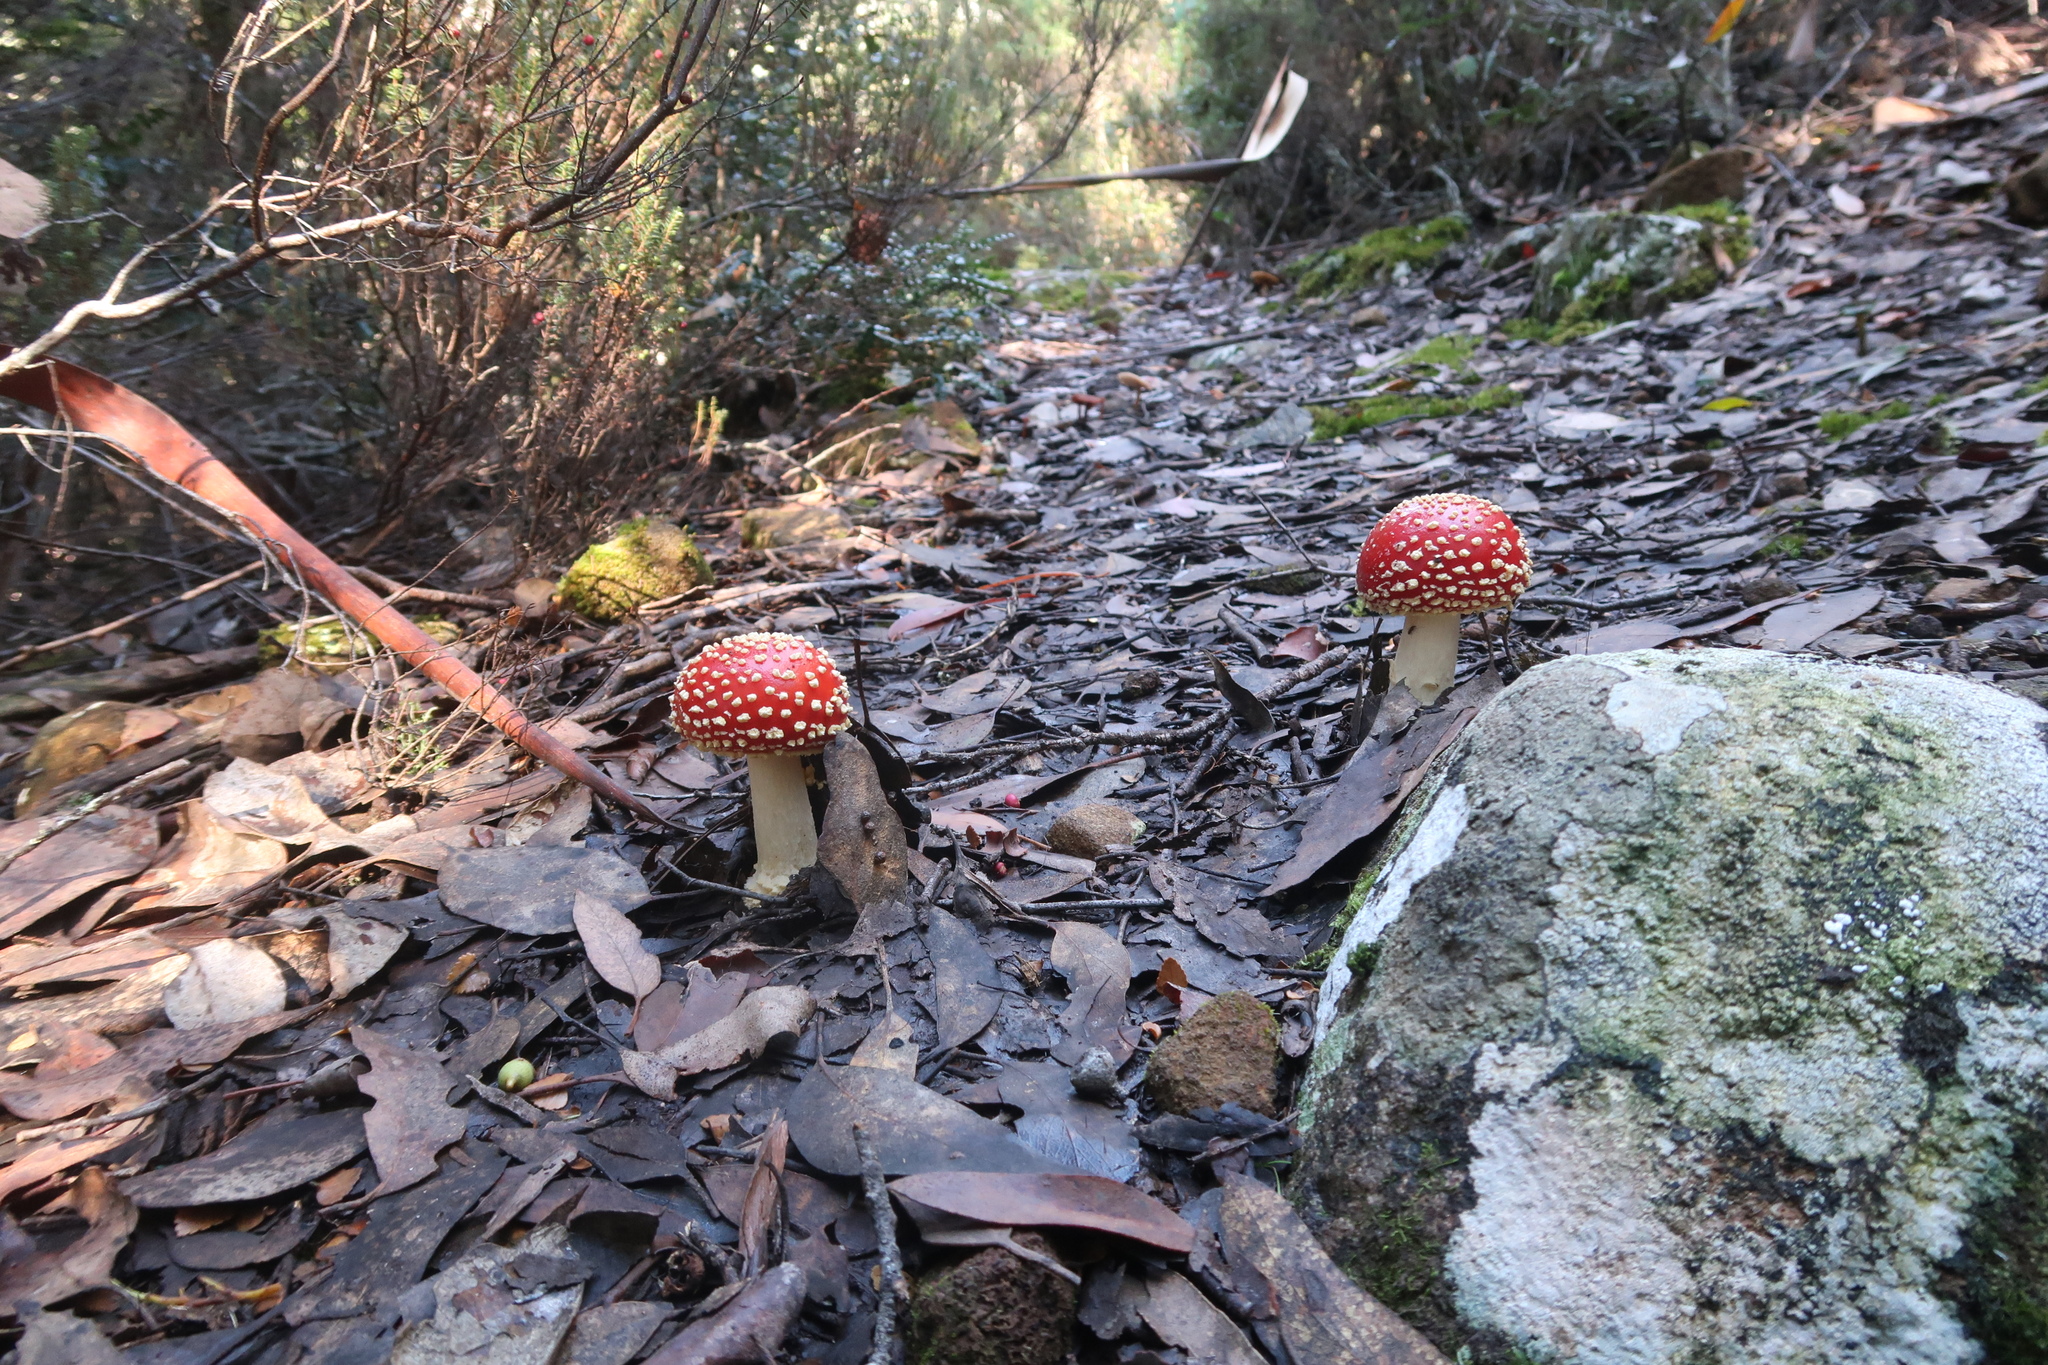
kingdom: Fungi
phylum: Basidiomycota
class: Agaricomycetes
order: Agaricales
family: Amanitaceae
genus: Amanita
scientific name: Amanita muscaria
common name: Fly agaric
